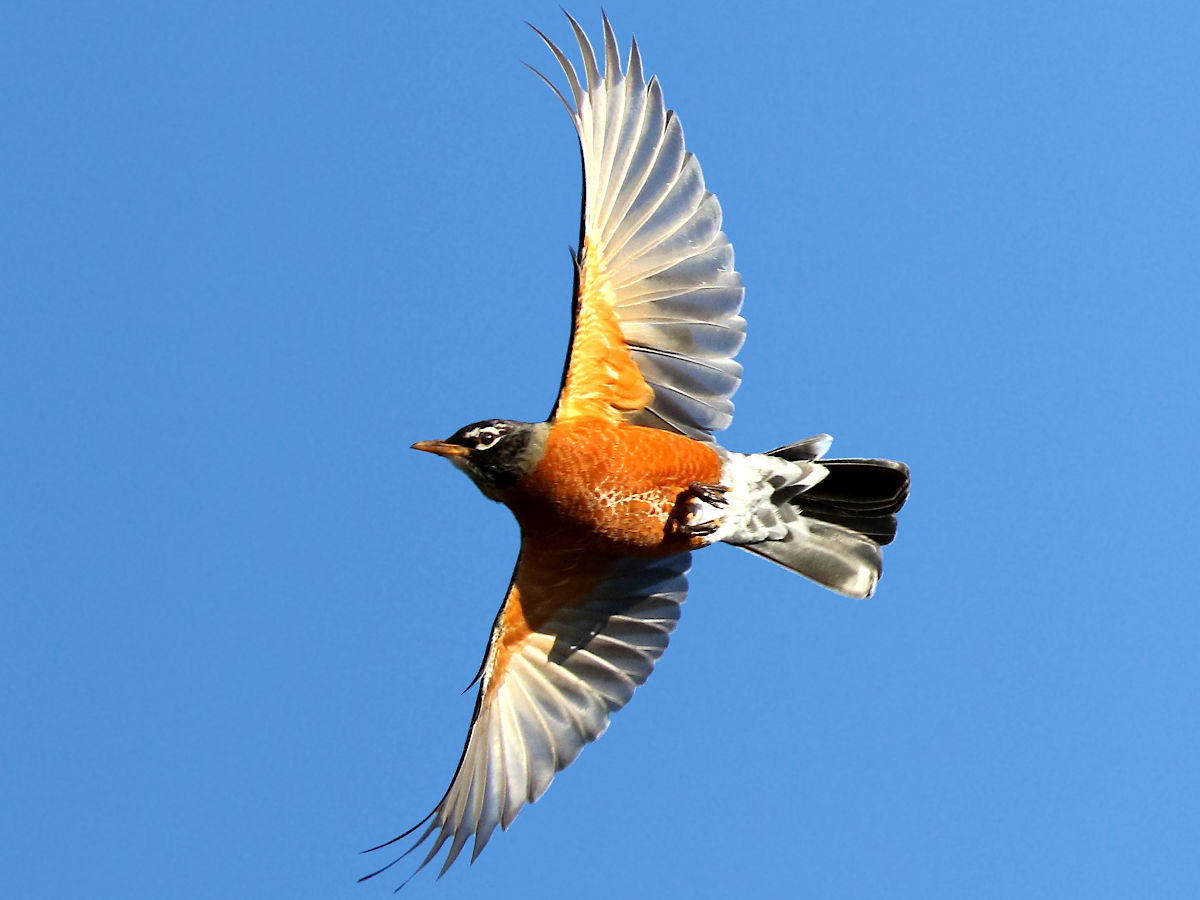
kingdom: Animalia
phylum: Chordata
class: Aves
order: Passeriformes
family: Turdidae
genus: Turdus
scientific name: Turdus migratorius
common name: American robin
